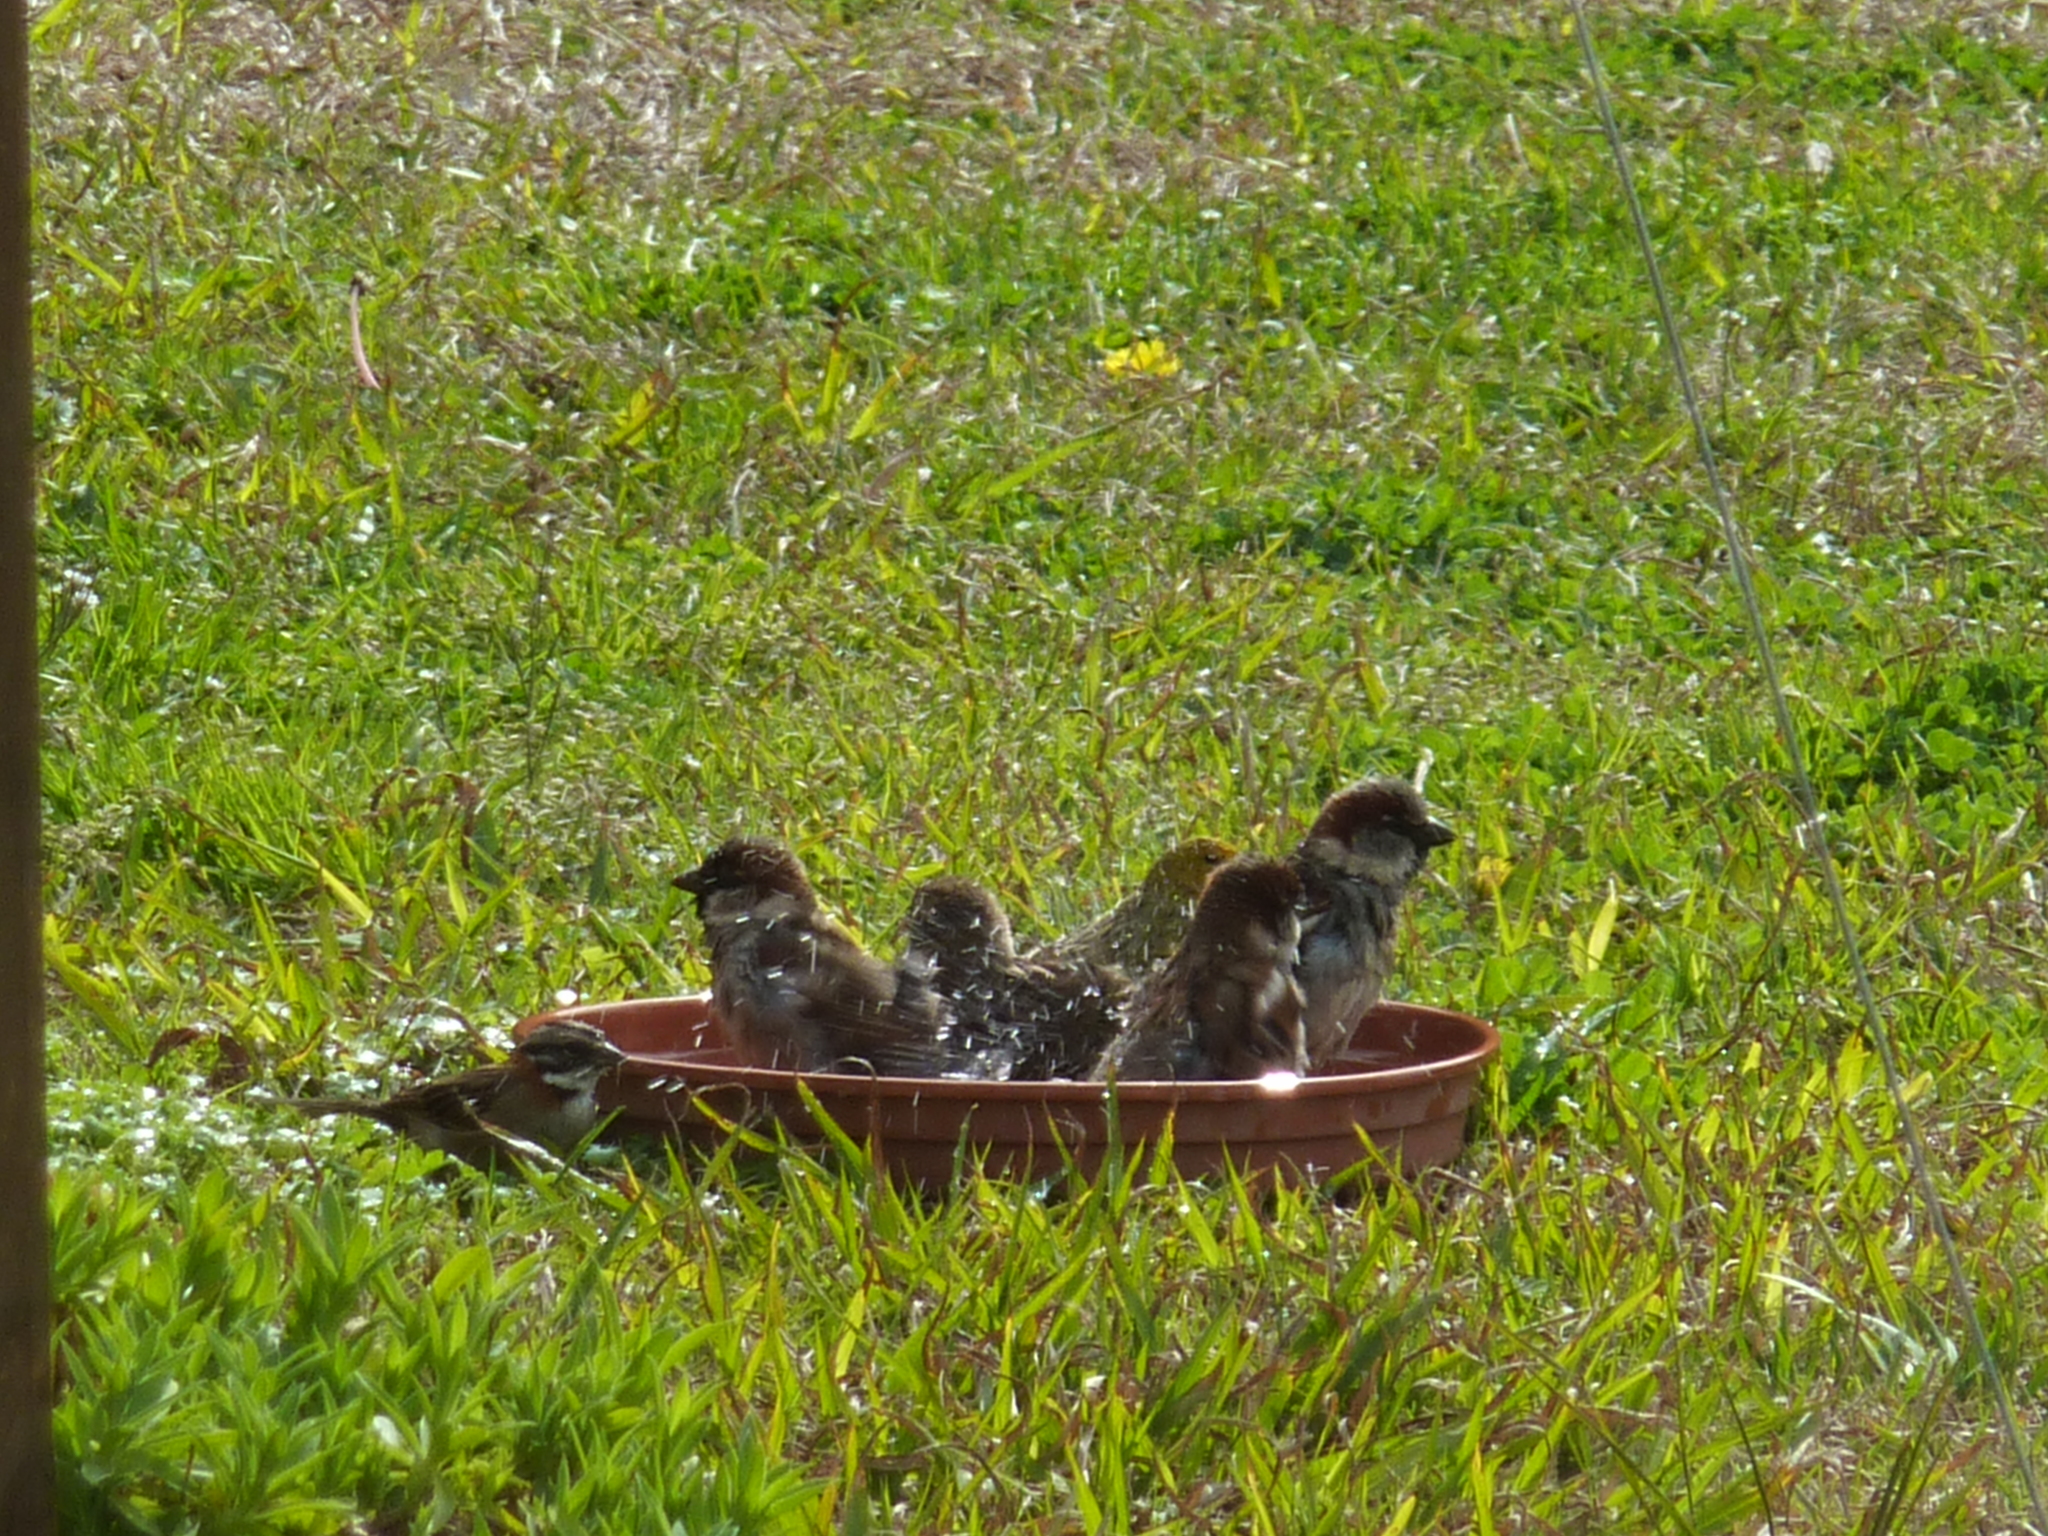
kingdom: Animalia
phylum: Chordata
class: Aves
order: Passeriformes
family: Passeridae
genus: Passer
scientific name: Passer domesticus
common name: House sparrow
